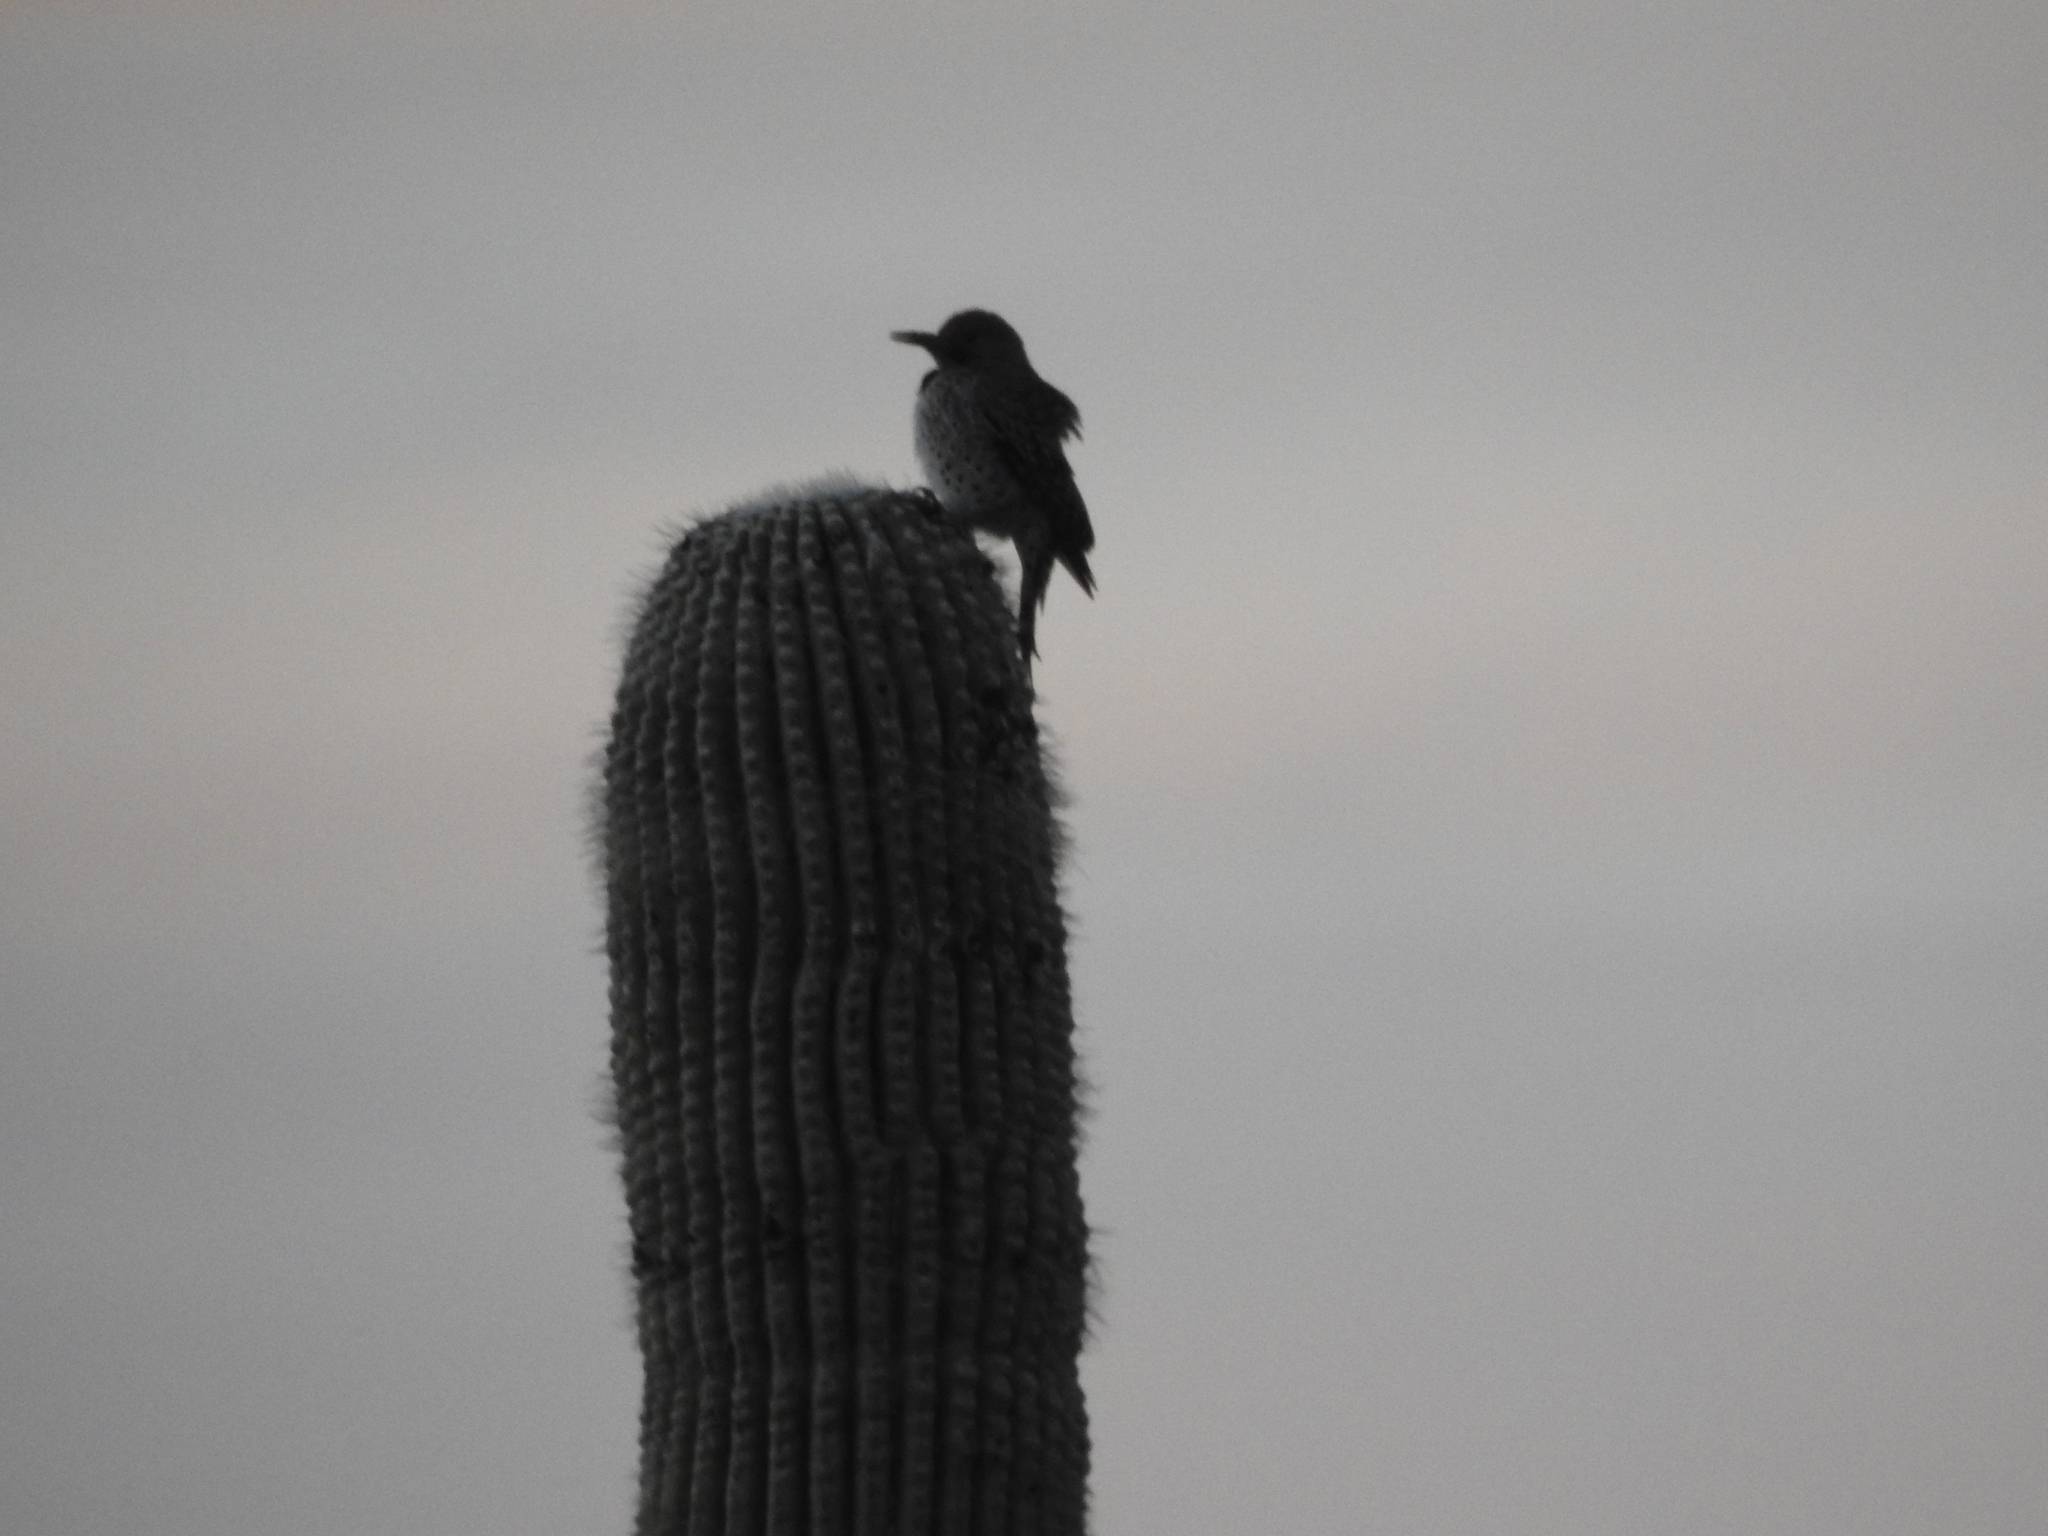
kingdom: Animalia
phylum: Chordata
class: Aves
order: Piciformes
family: Picidae
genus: Colaptes
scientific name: Colaptes chrysoides
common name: Gilded flicker
